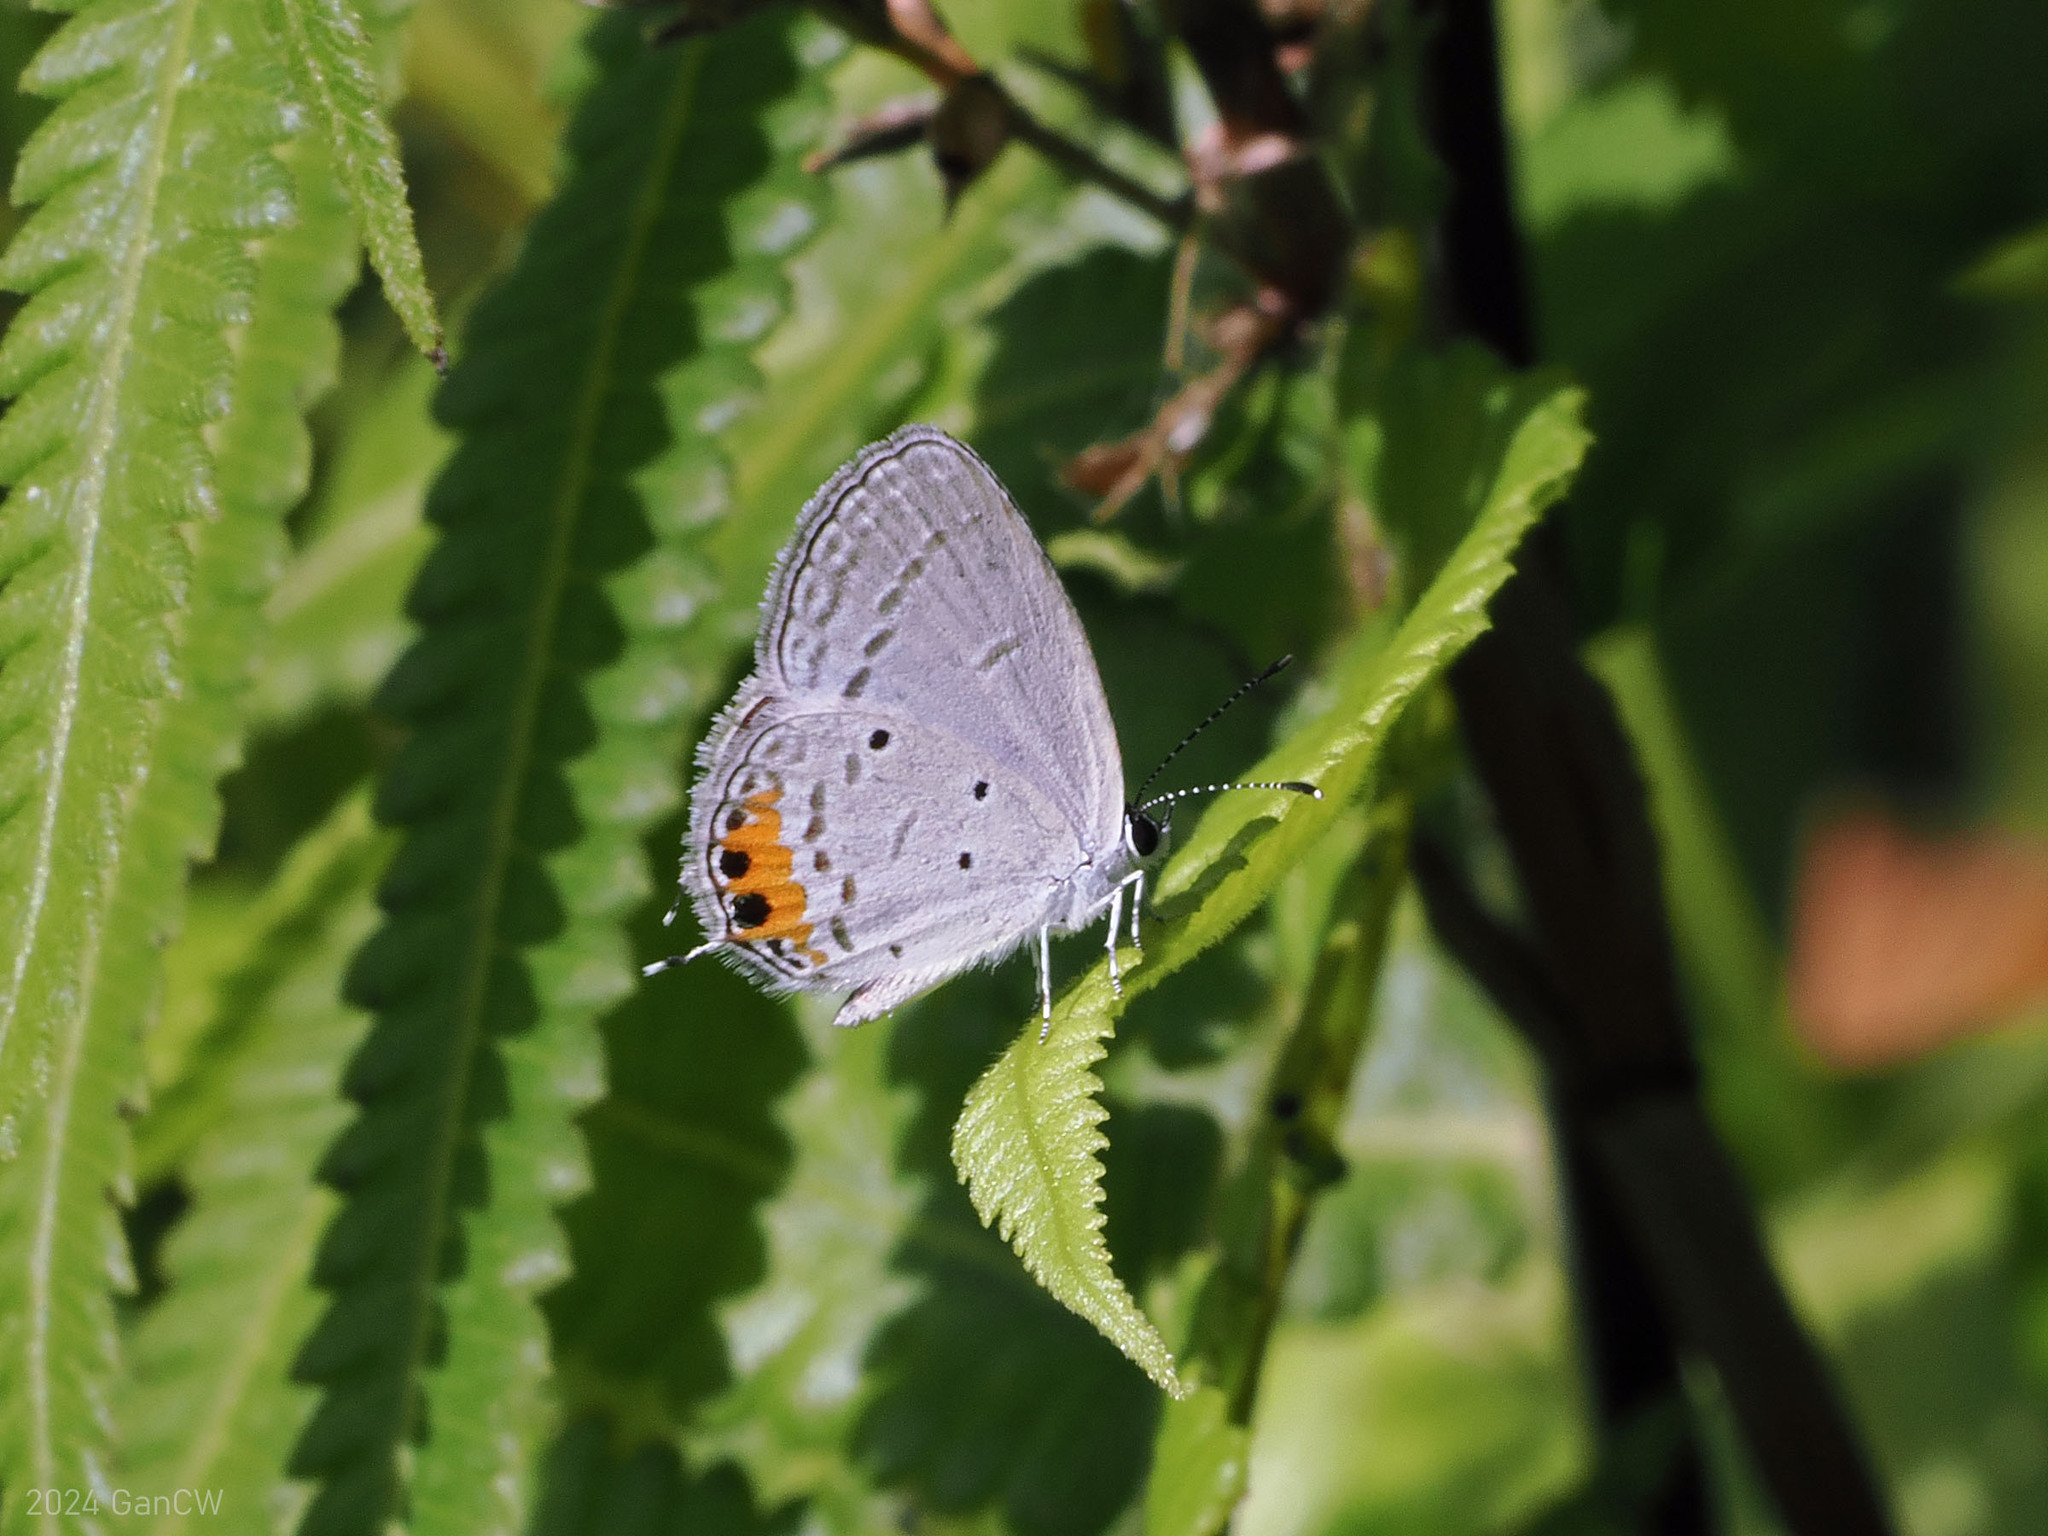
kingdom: Animalia
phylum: Arthropoda
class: Insecta
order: Lepidoptera
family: Lycaenidae
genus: Everes
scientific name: Everes lacturnus
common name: Orange-tipped pea-blue
